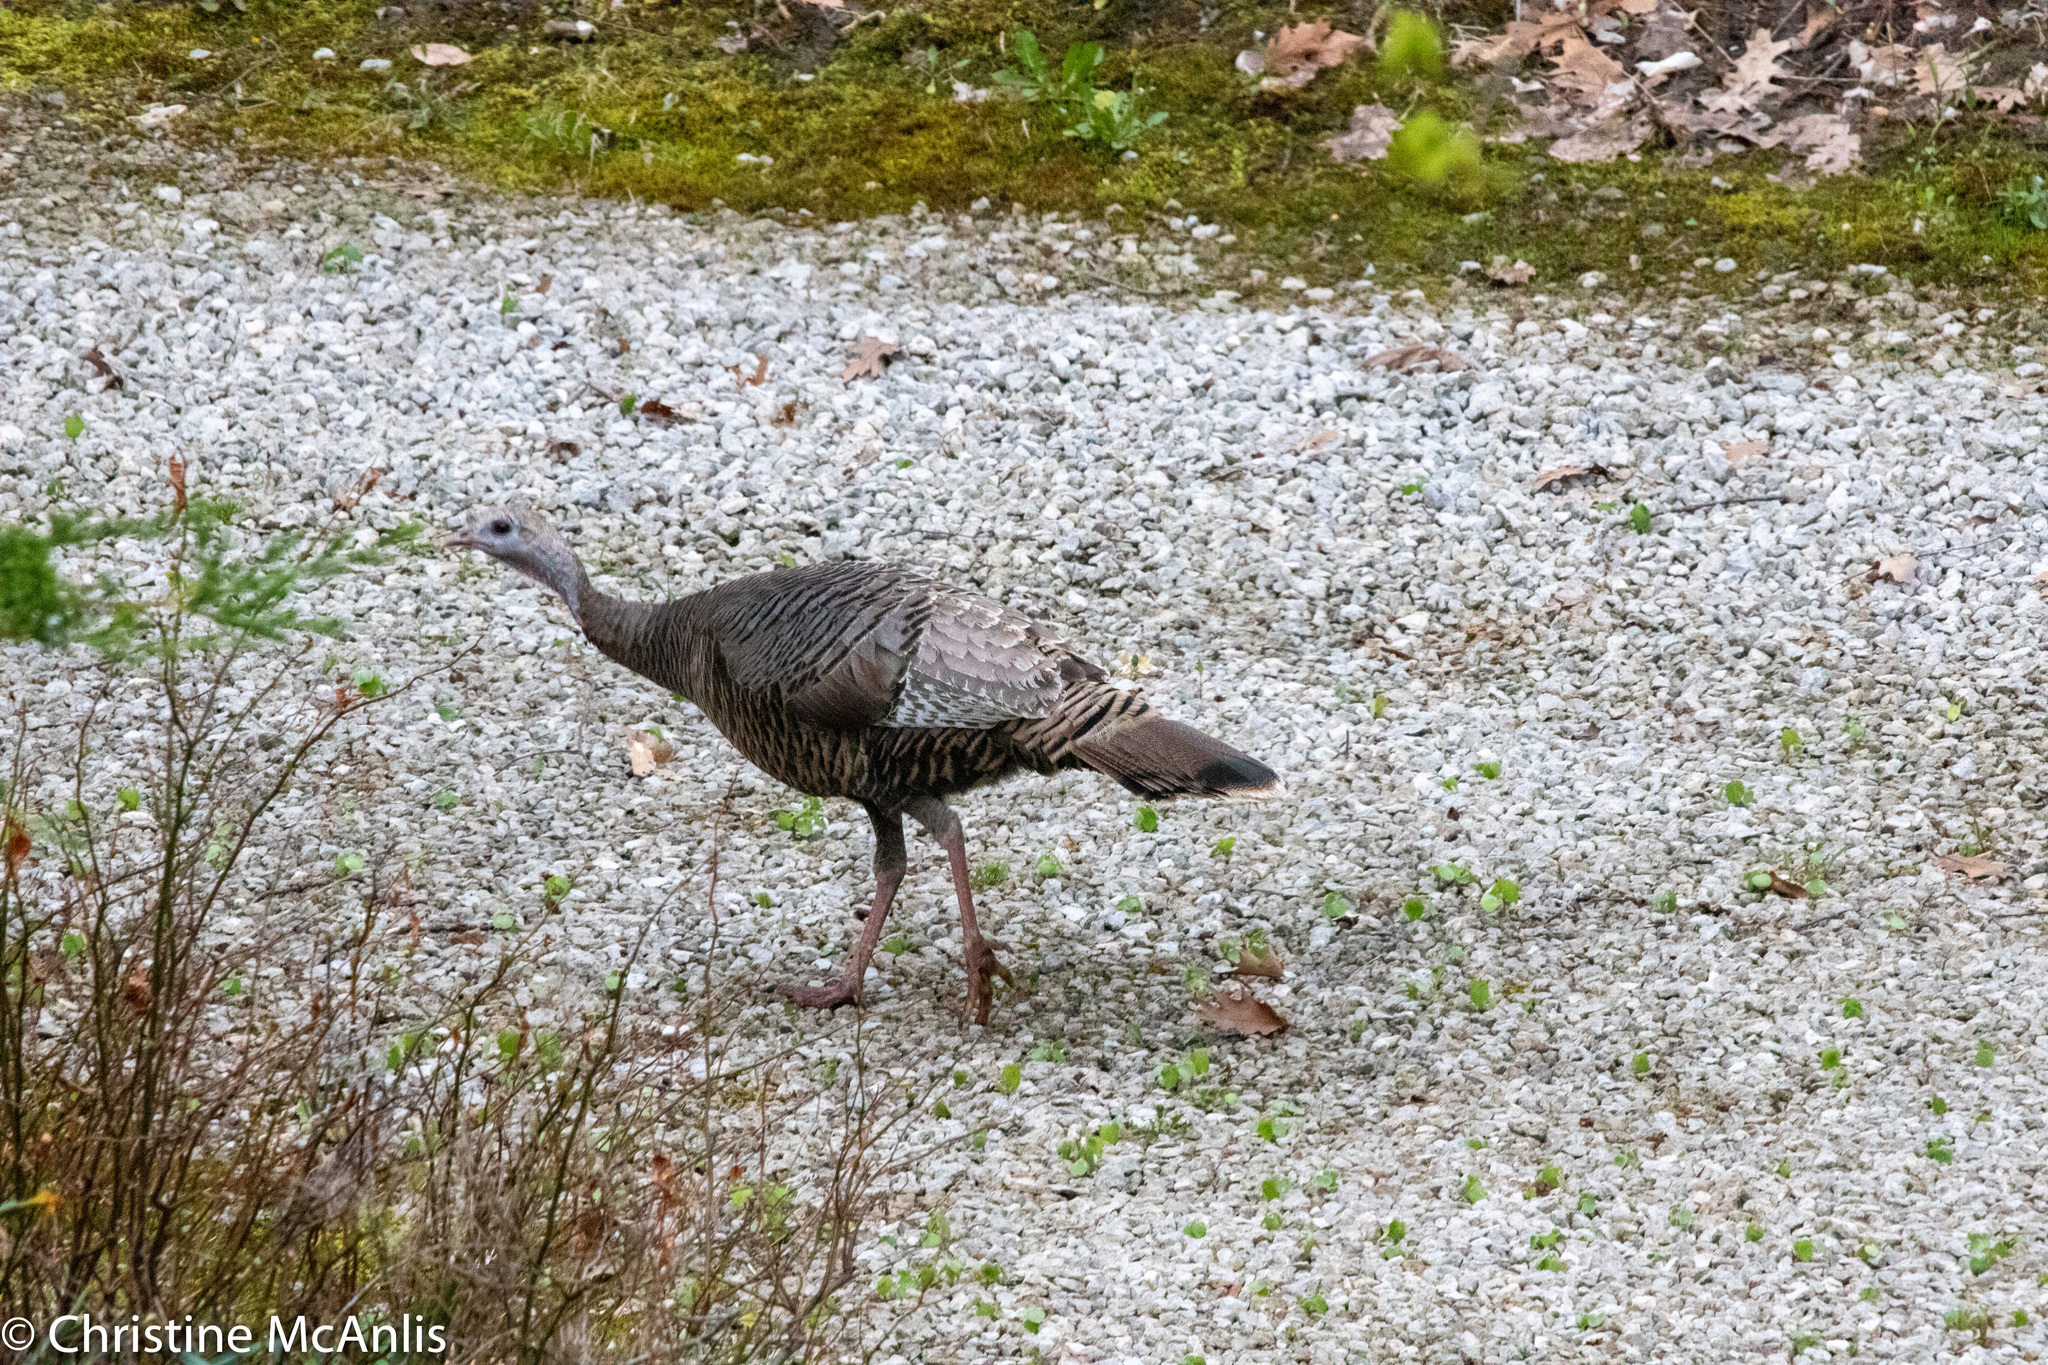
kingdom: Animalia
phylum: Chordata
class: Aves
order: Galliformes
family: Phasianidae
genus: Meleagris
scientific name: Meleagris gallopavo
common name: Wild turkey
